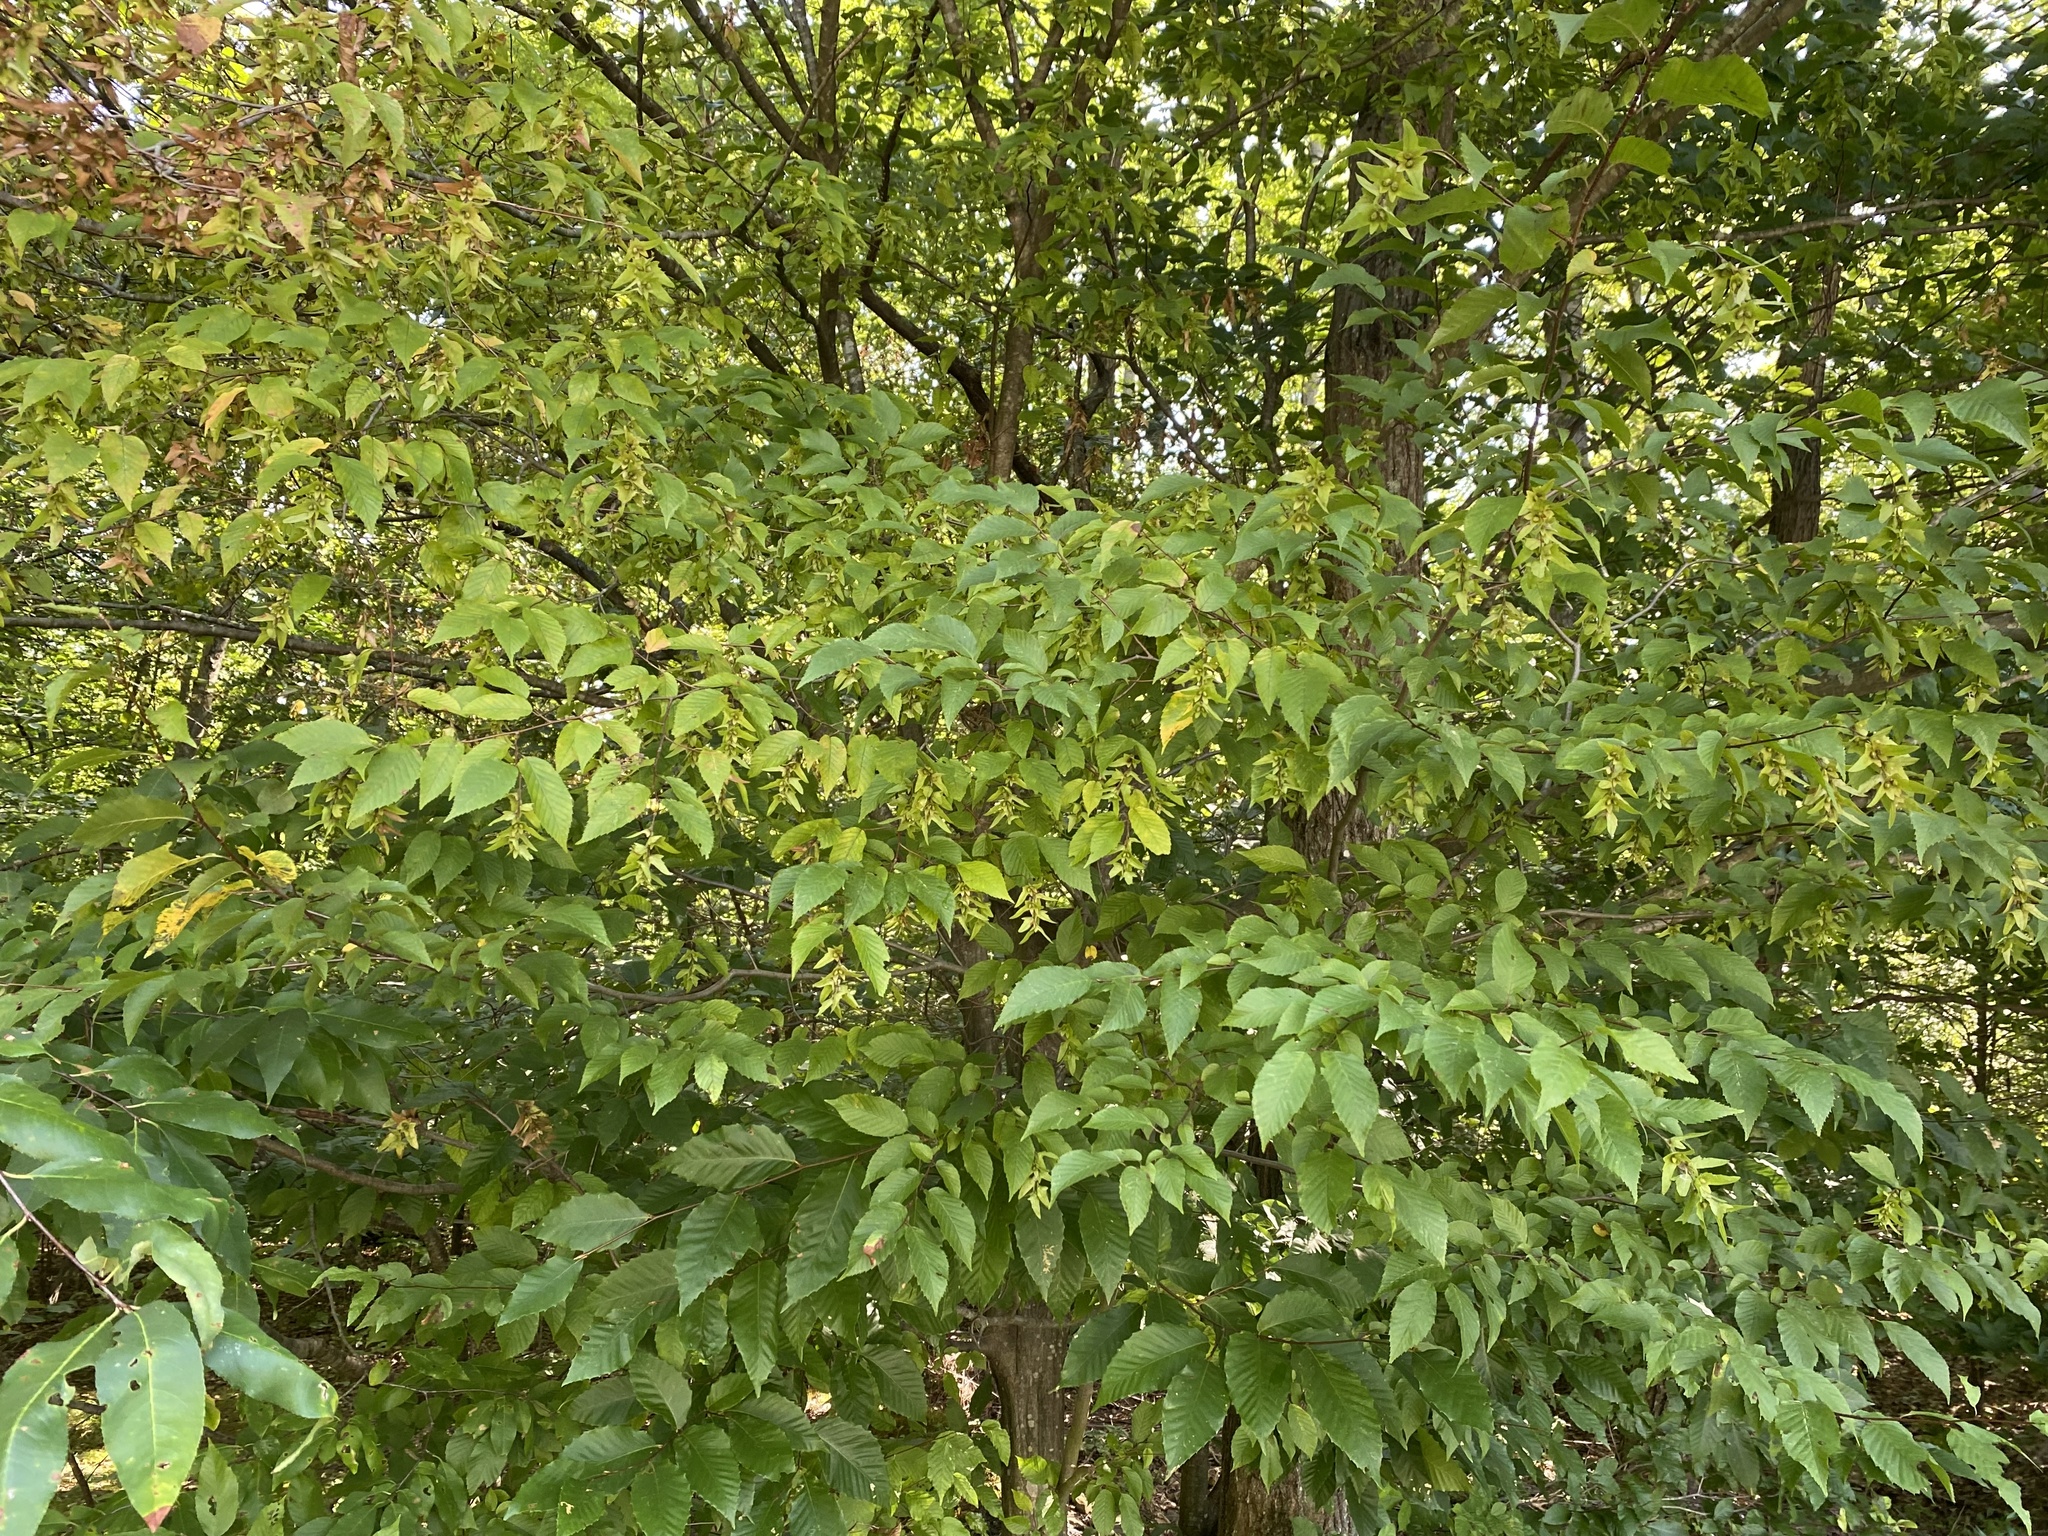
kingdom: Plantae
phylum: Tracheophyta
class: Magnoliopsida
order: Fagales
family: Betulaceae
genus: Carpinus
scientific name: Carpinus caroliniana
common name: American hornbeam
